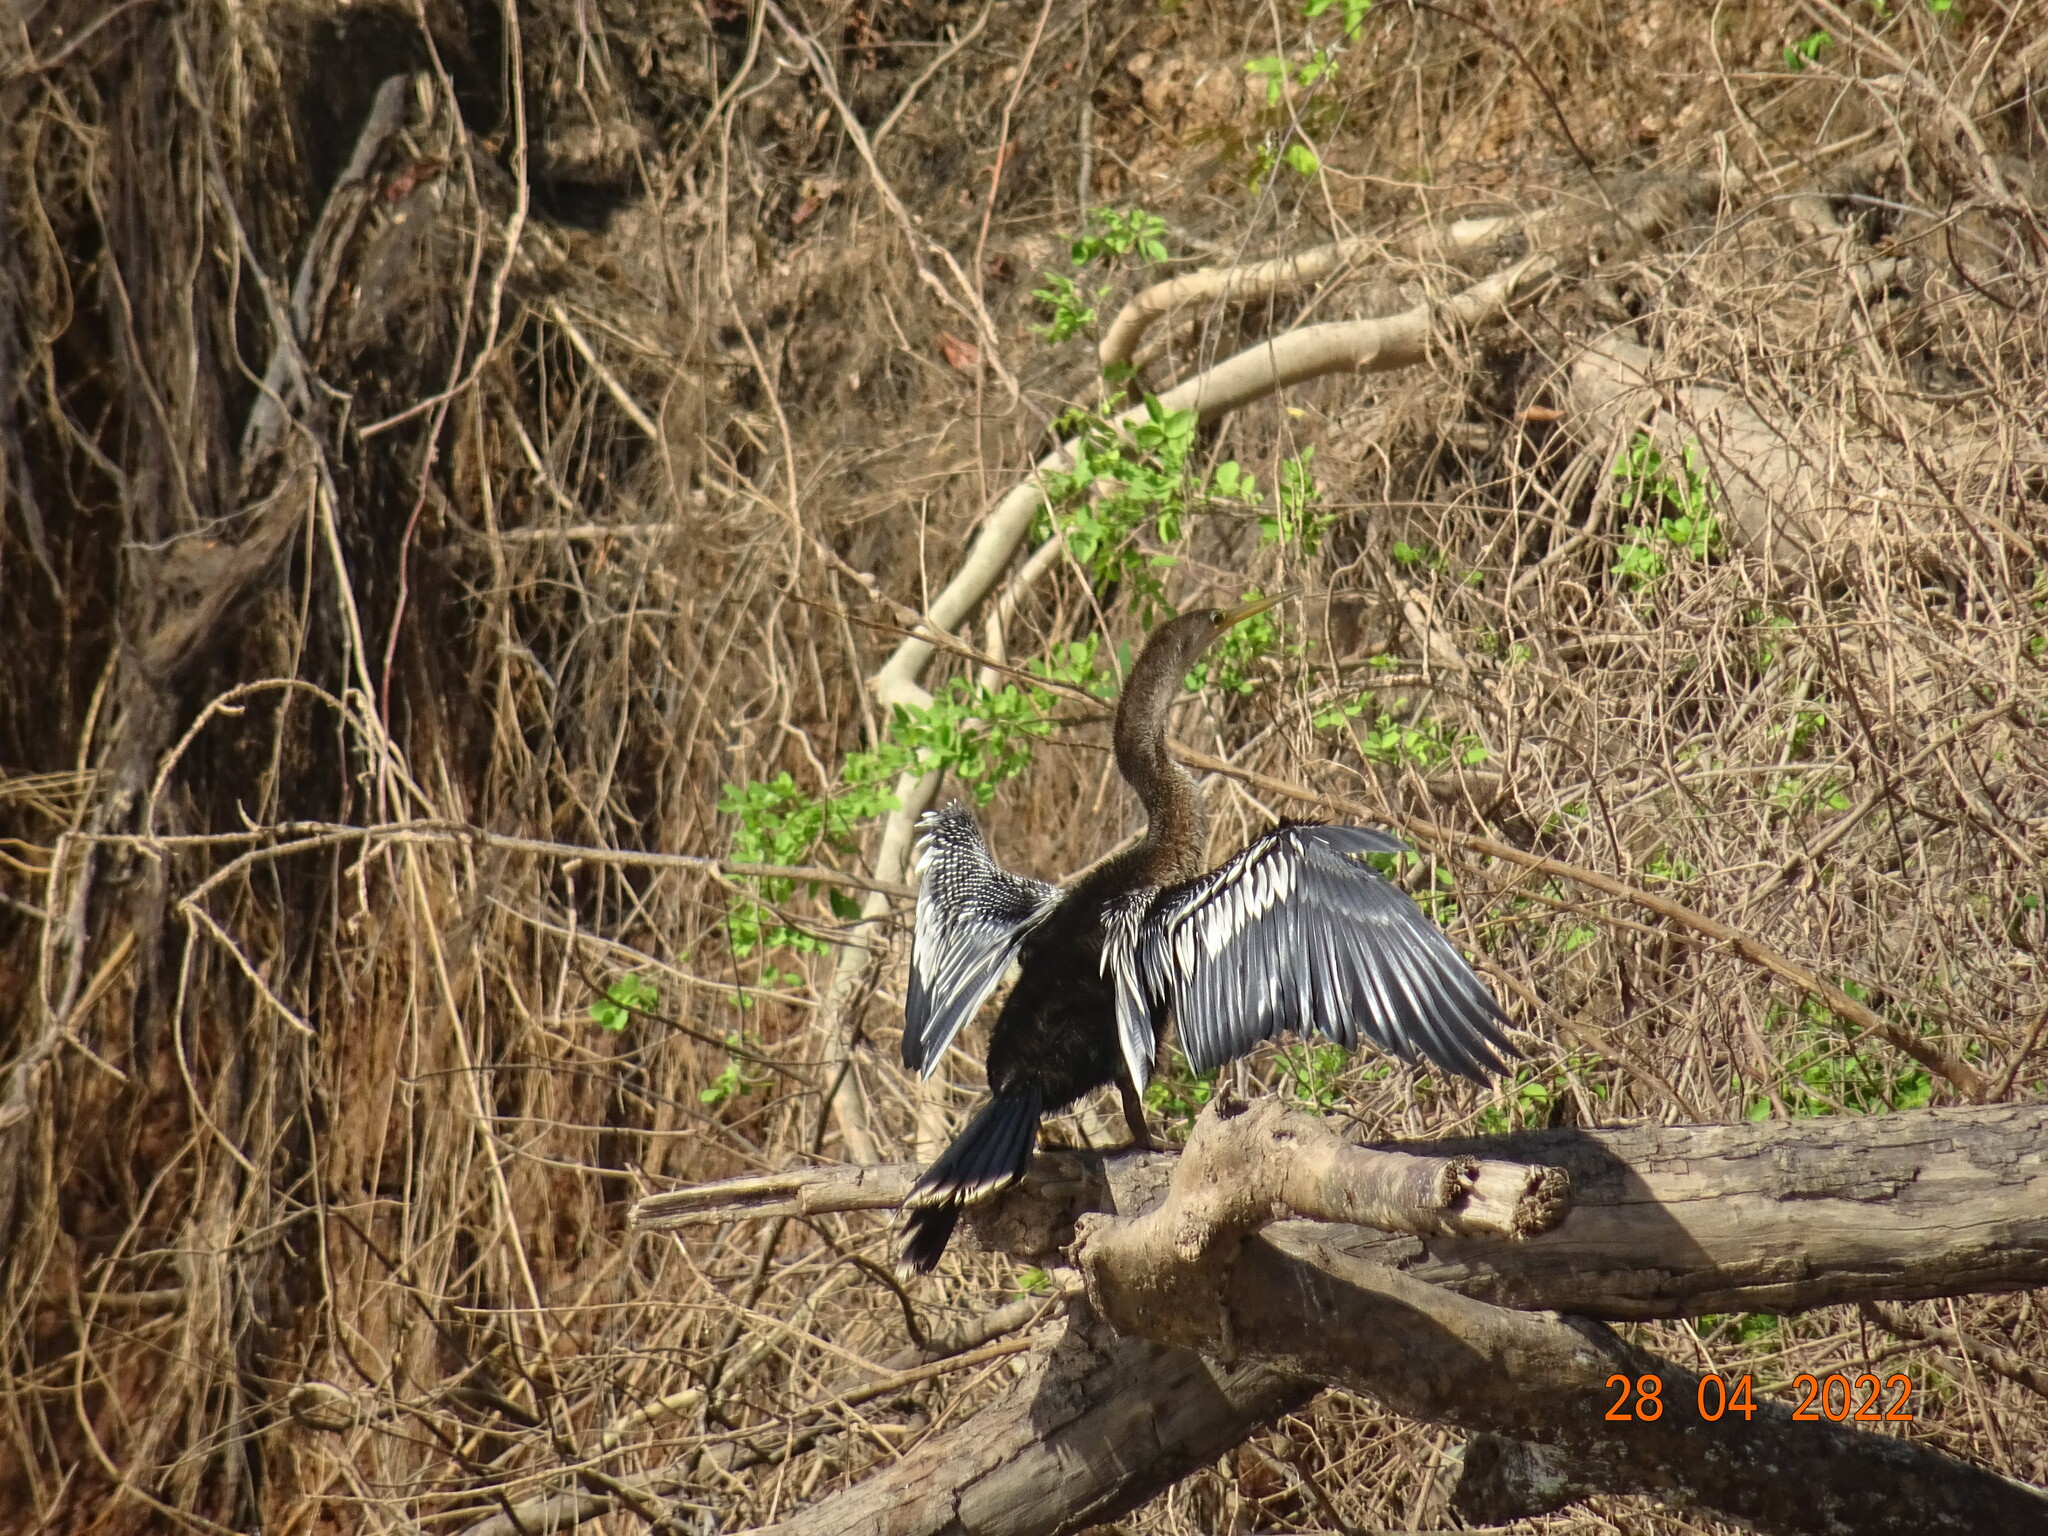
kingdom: Animalia
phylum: Chordata
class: Aves
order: Suliformes
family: Anhingidae
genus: Anhinga
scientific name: Anhinga anhinga
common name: Anhinga
